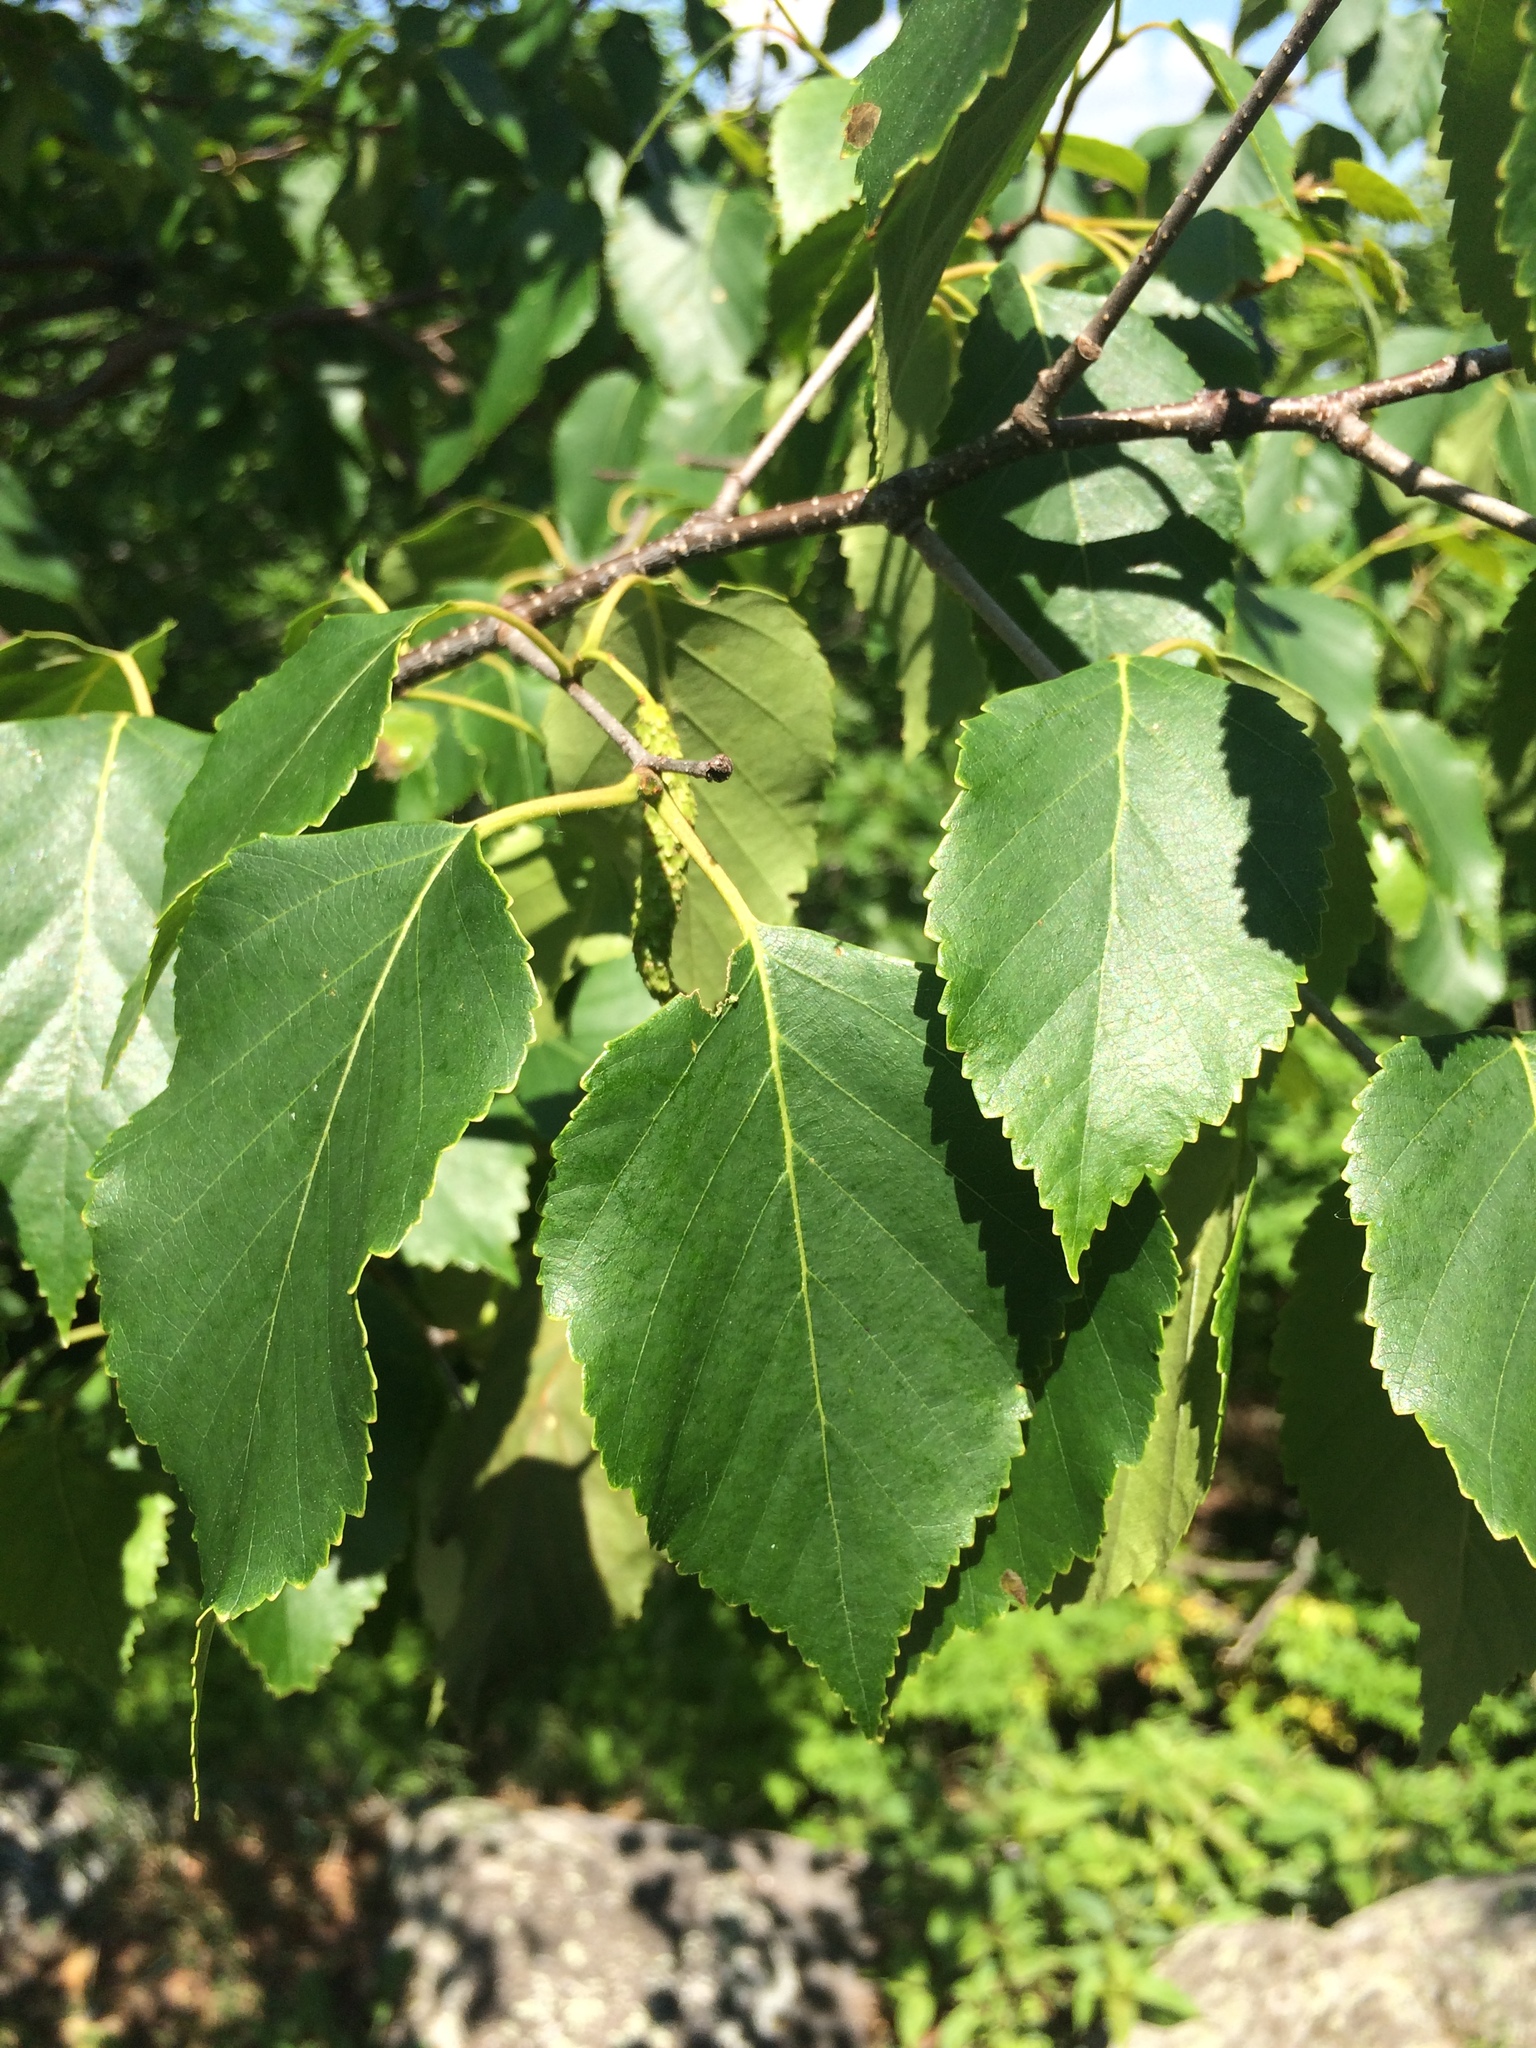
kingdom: Plantae
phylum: Tracheophyta
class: Magnoliopsida
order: Fagales
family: Betulaceae
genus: Betula
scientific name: Betula papyrifera
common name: Paper birch
